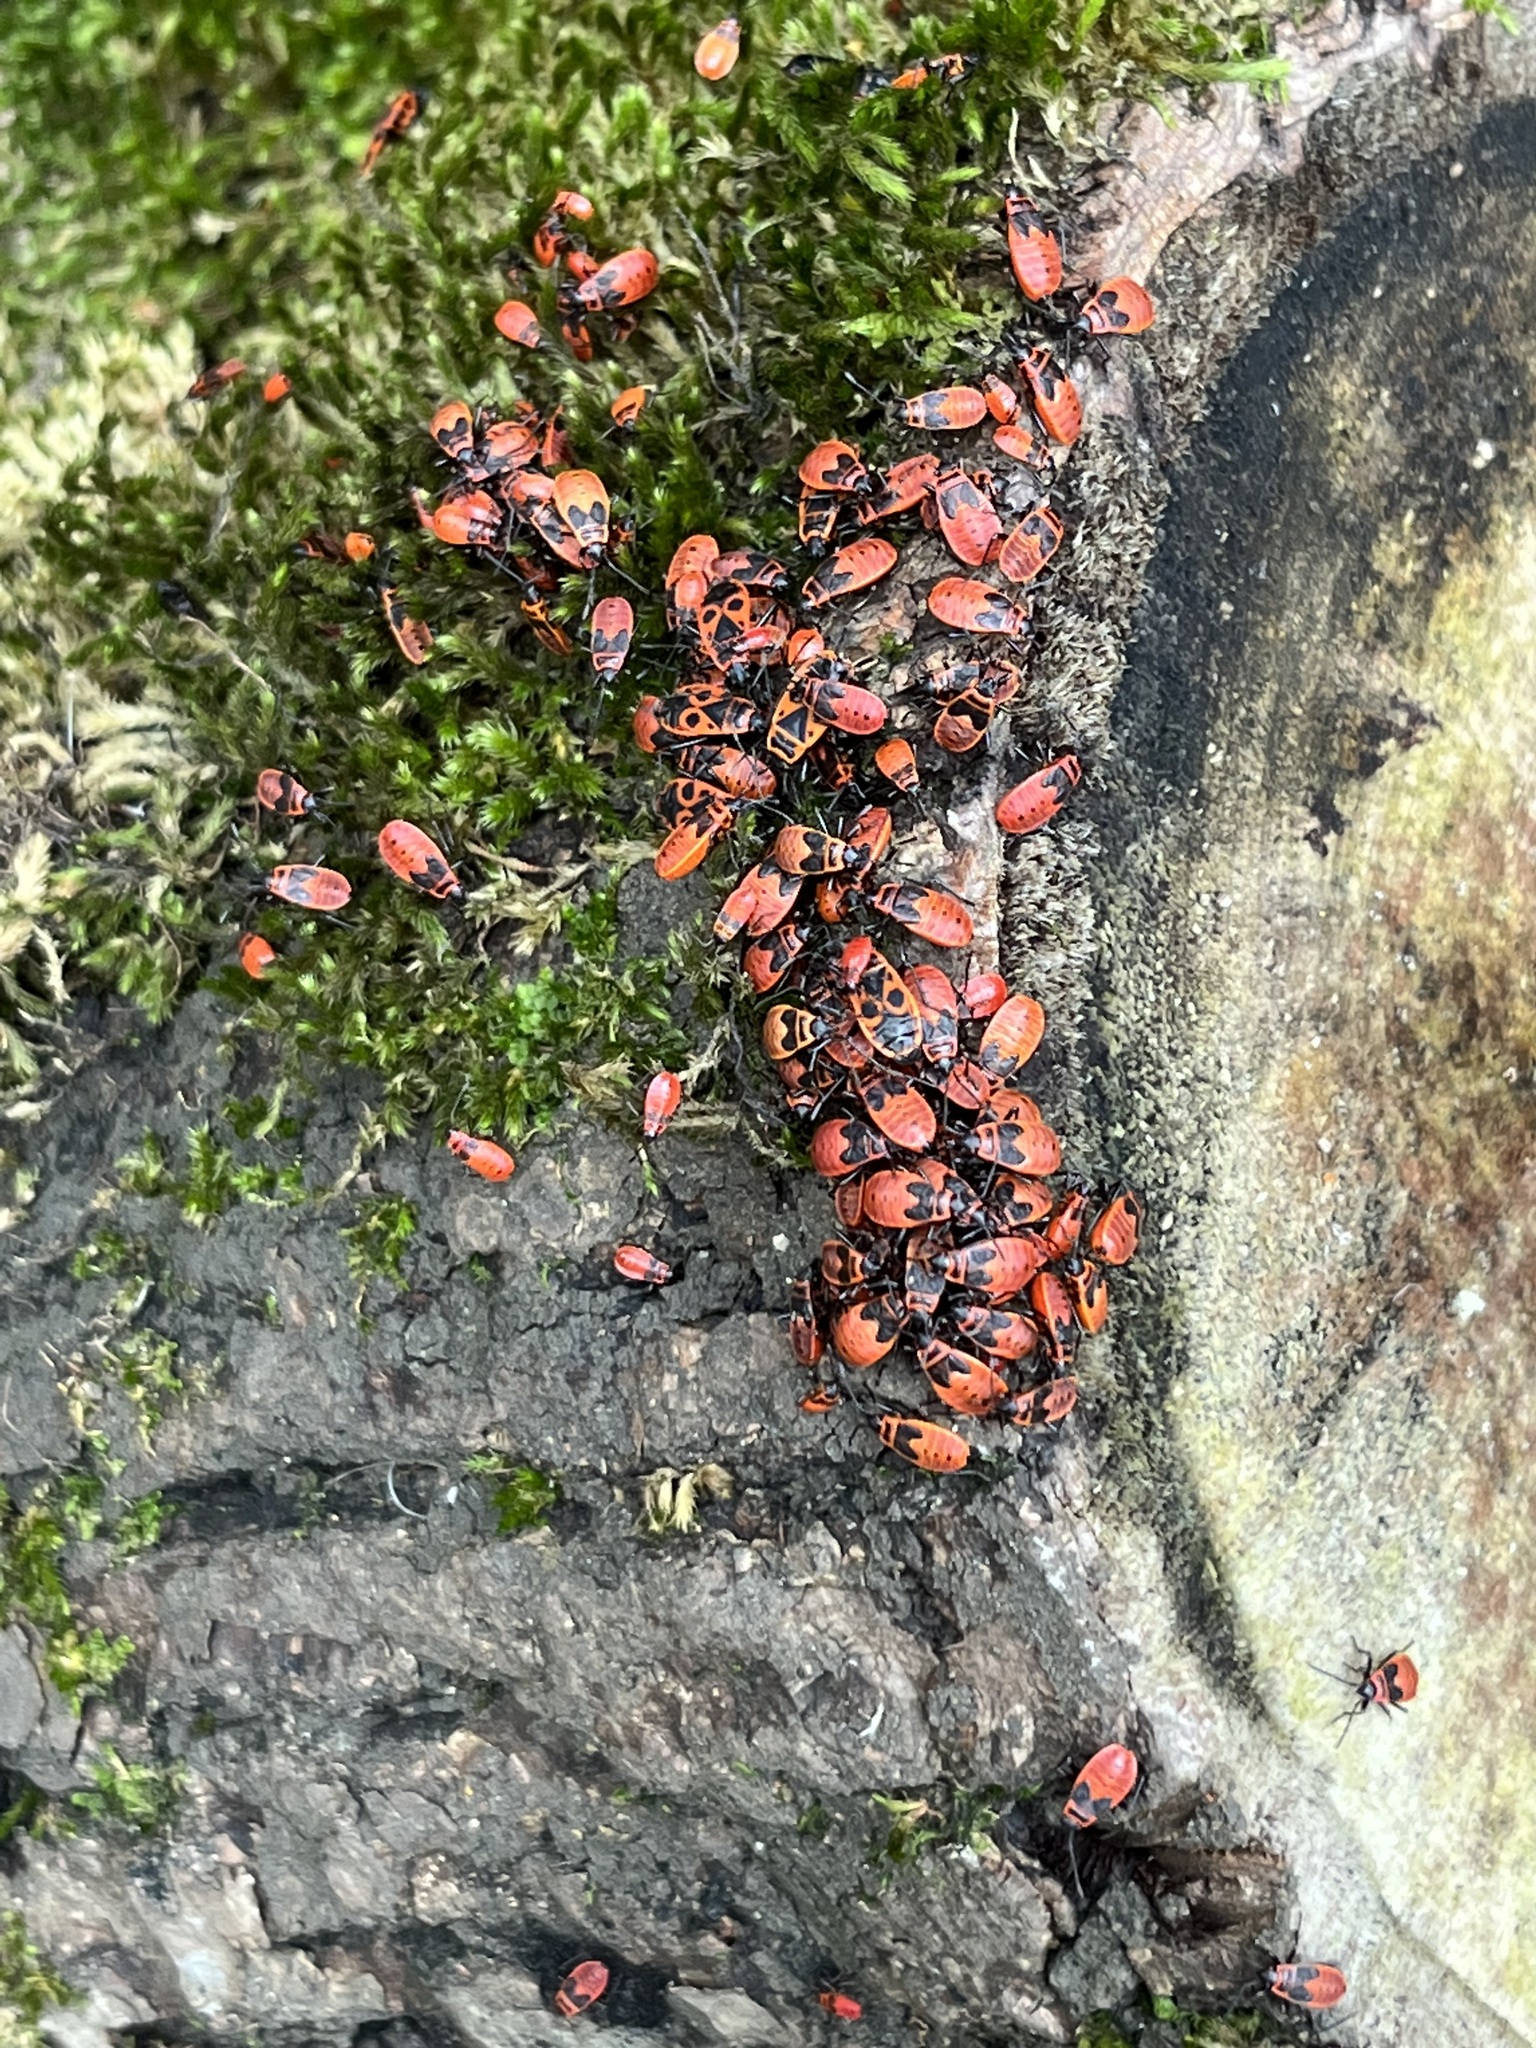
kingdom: Animalia
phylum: Arthropoda
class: Insecta
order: Hemiptera
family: Pyrrhocoridae
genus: Pyrrhocoris
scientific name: Pyrrhocoris apterus
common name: Firebug
